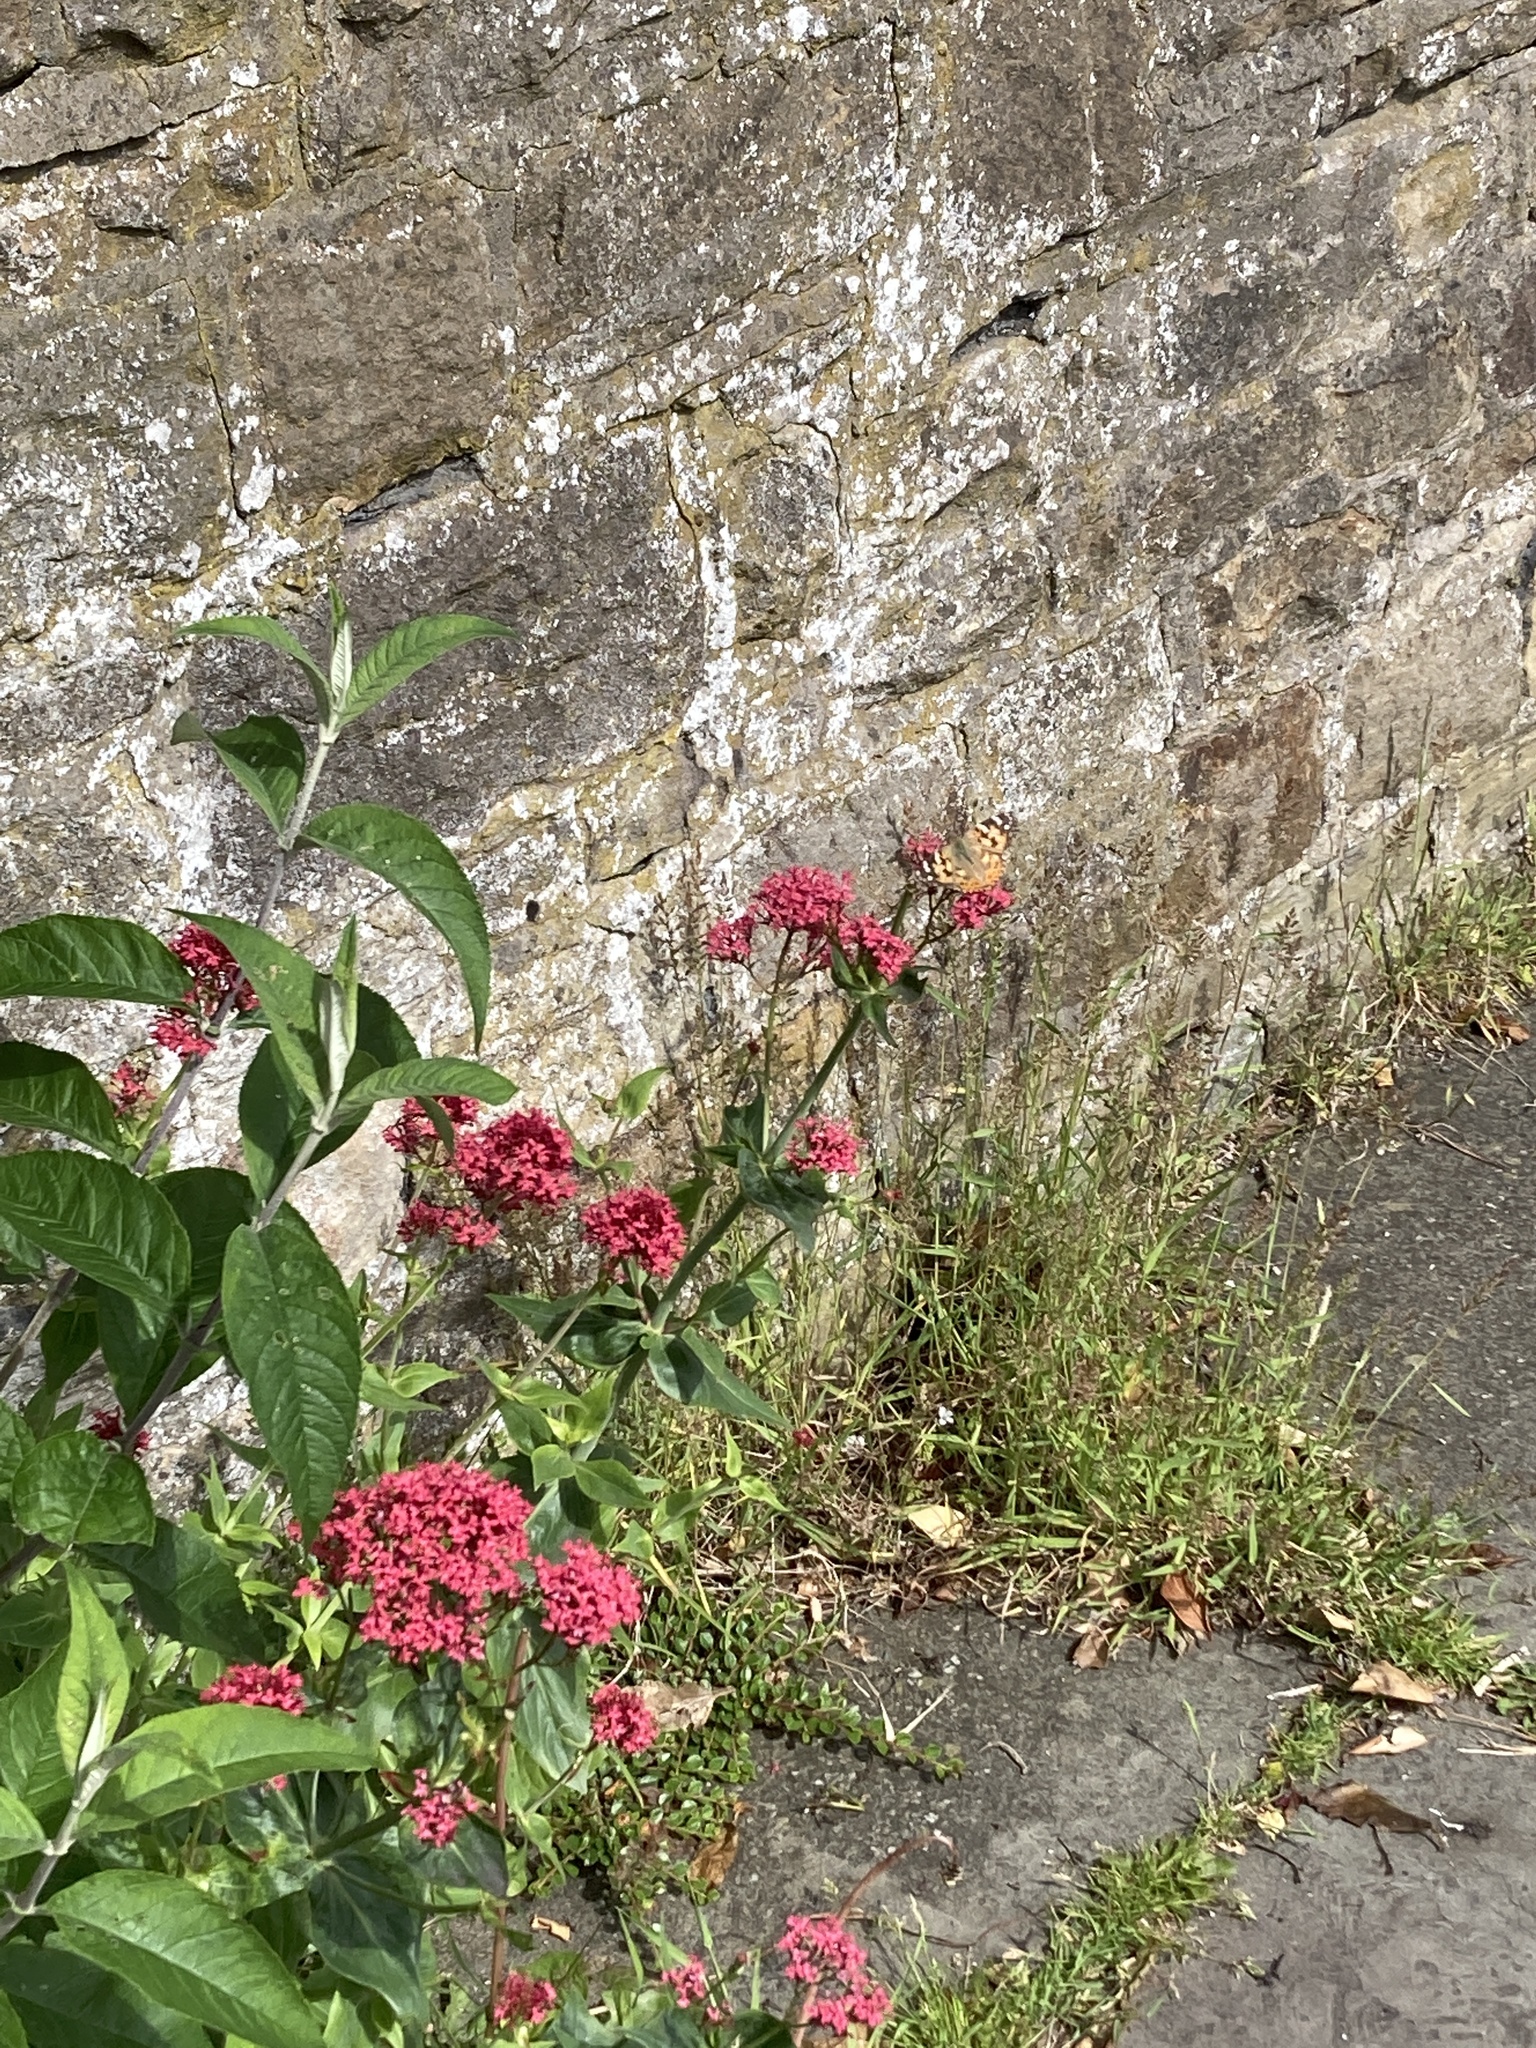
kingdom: Animalia
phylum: Arthropoda
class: Insecta
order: Lepidoptera
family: Nymphalidae
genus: Vanessa
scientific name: Vanessa cardui
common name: Painted lady
